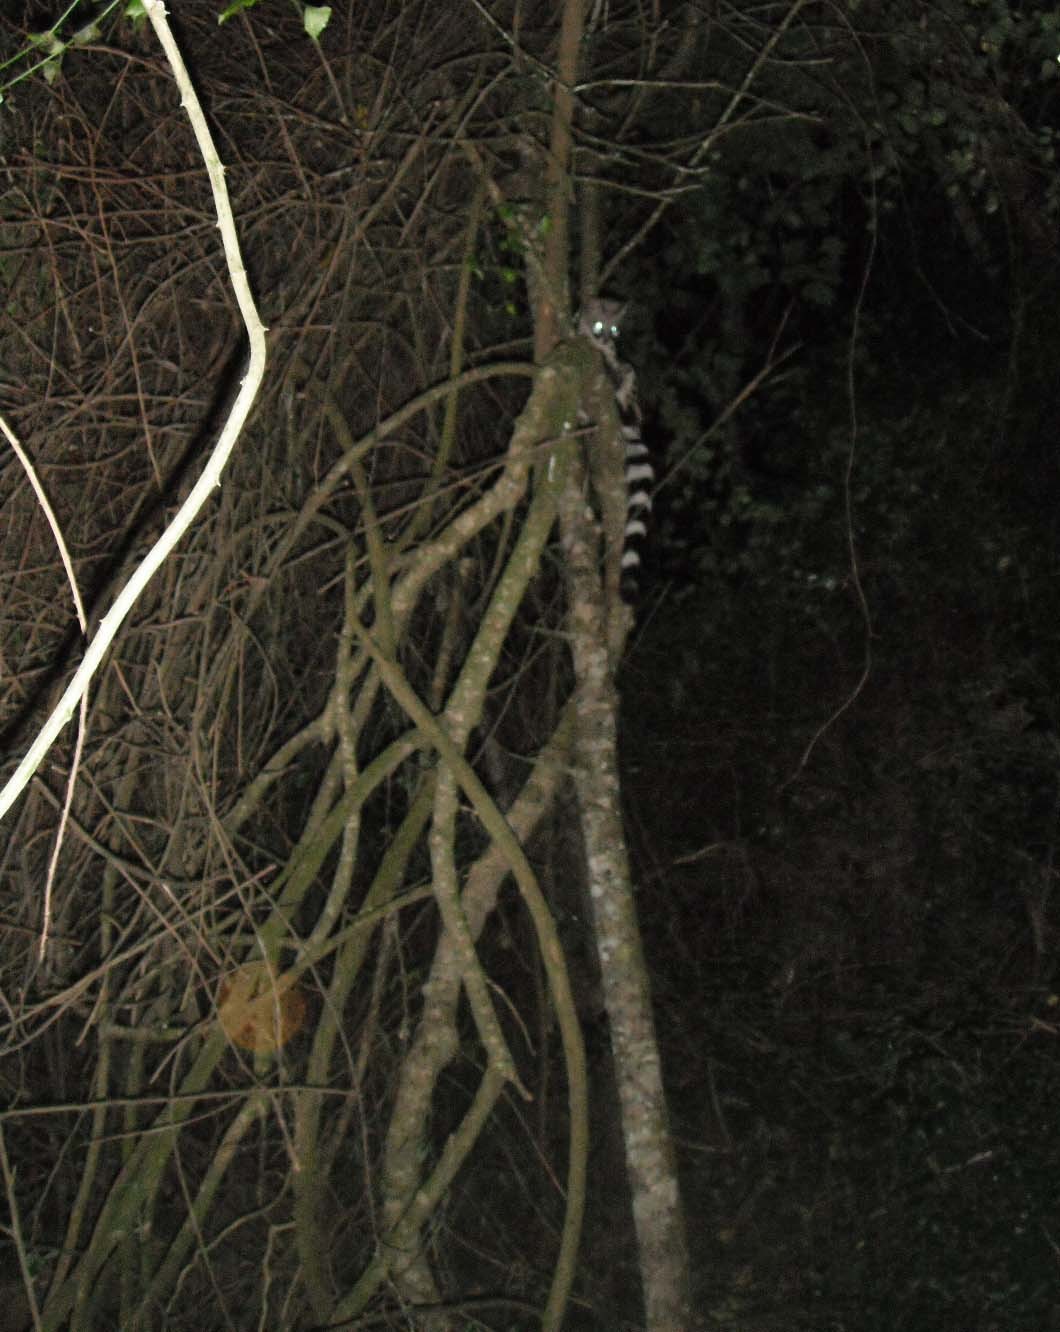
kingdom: Animalia
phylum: Chordata
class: Mammalia
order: Carnivora
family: Viverridae
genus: Genetta
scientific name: Genetta tigrina
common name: Cape genet
